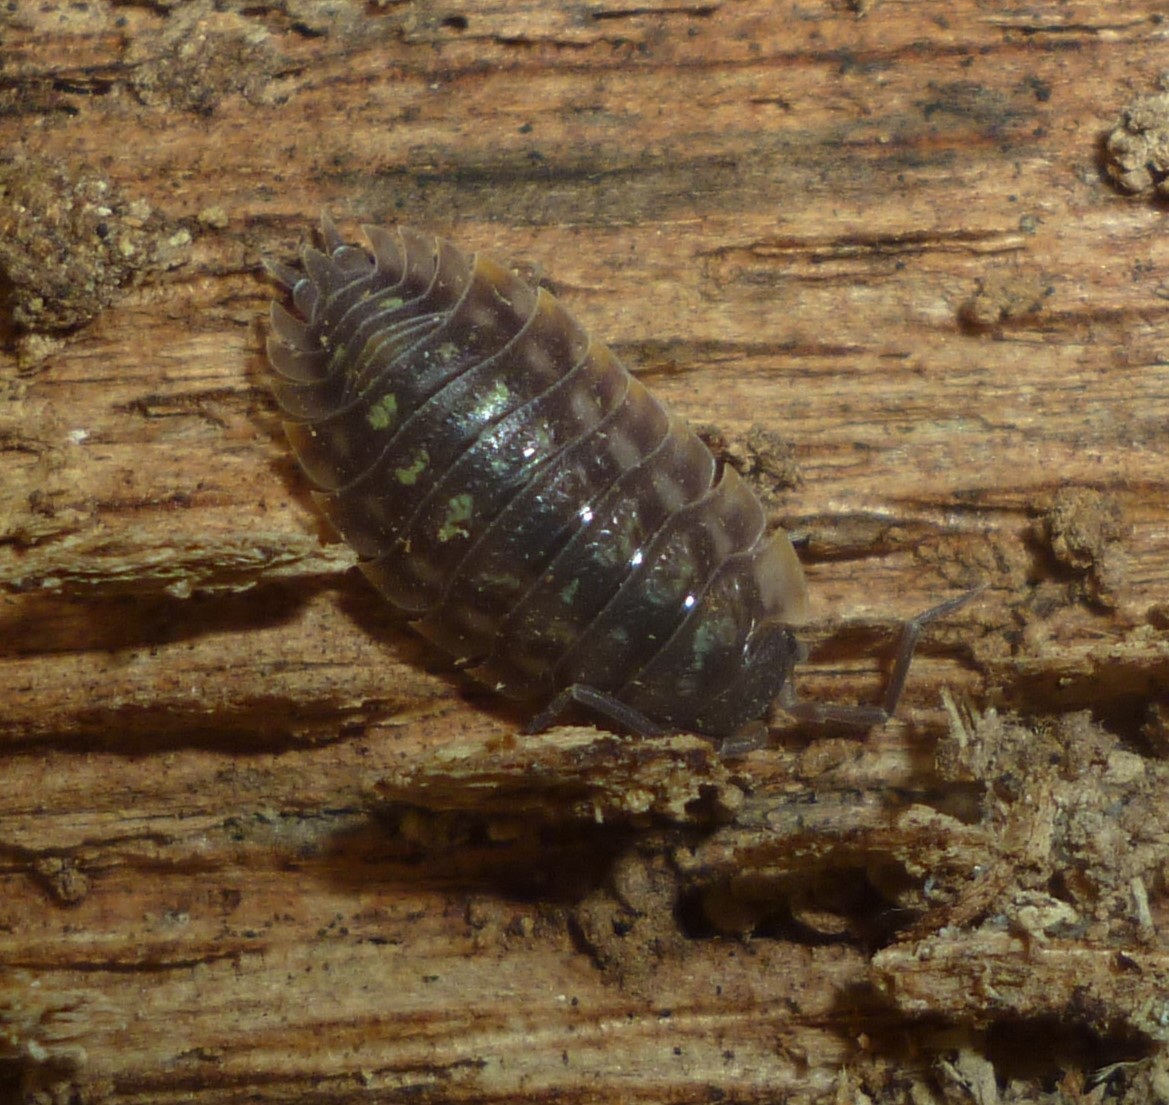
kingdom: Animalia
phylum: Arthropoda
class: Malacostraca
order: Isopoda
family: Oniscidae
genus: Oniscus
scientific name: Oniscus asellus
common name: Common shiny woodlouse
